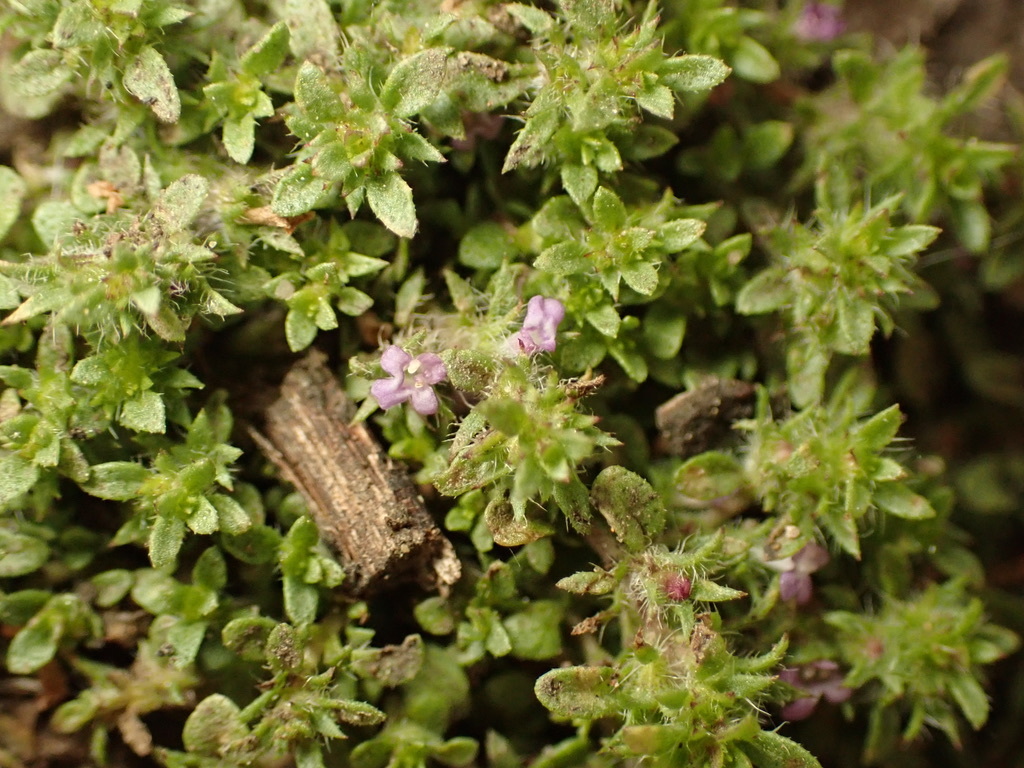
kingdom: Plantae
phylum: Tracheophyta
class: Magnoliopsida
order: Lamiales
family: Lamiaceae
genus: Pogogyne
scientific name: Pogogyne serpylloides
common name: Thymeleaf mesamint
